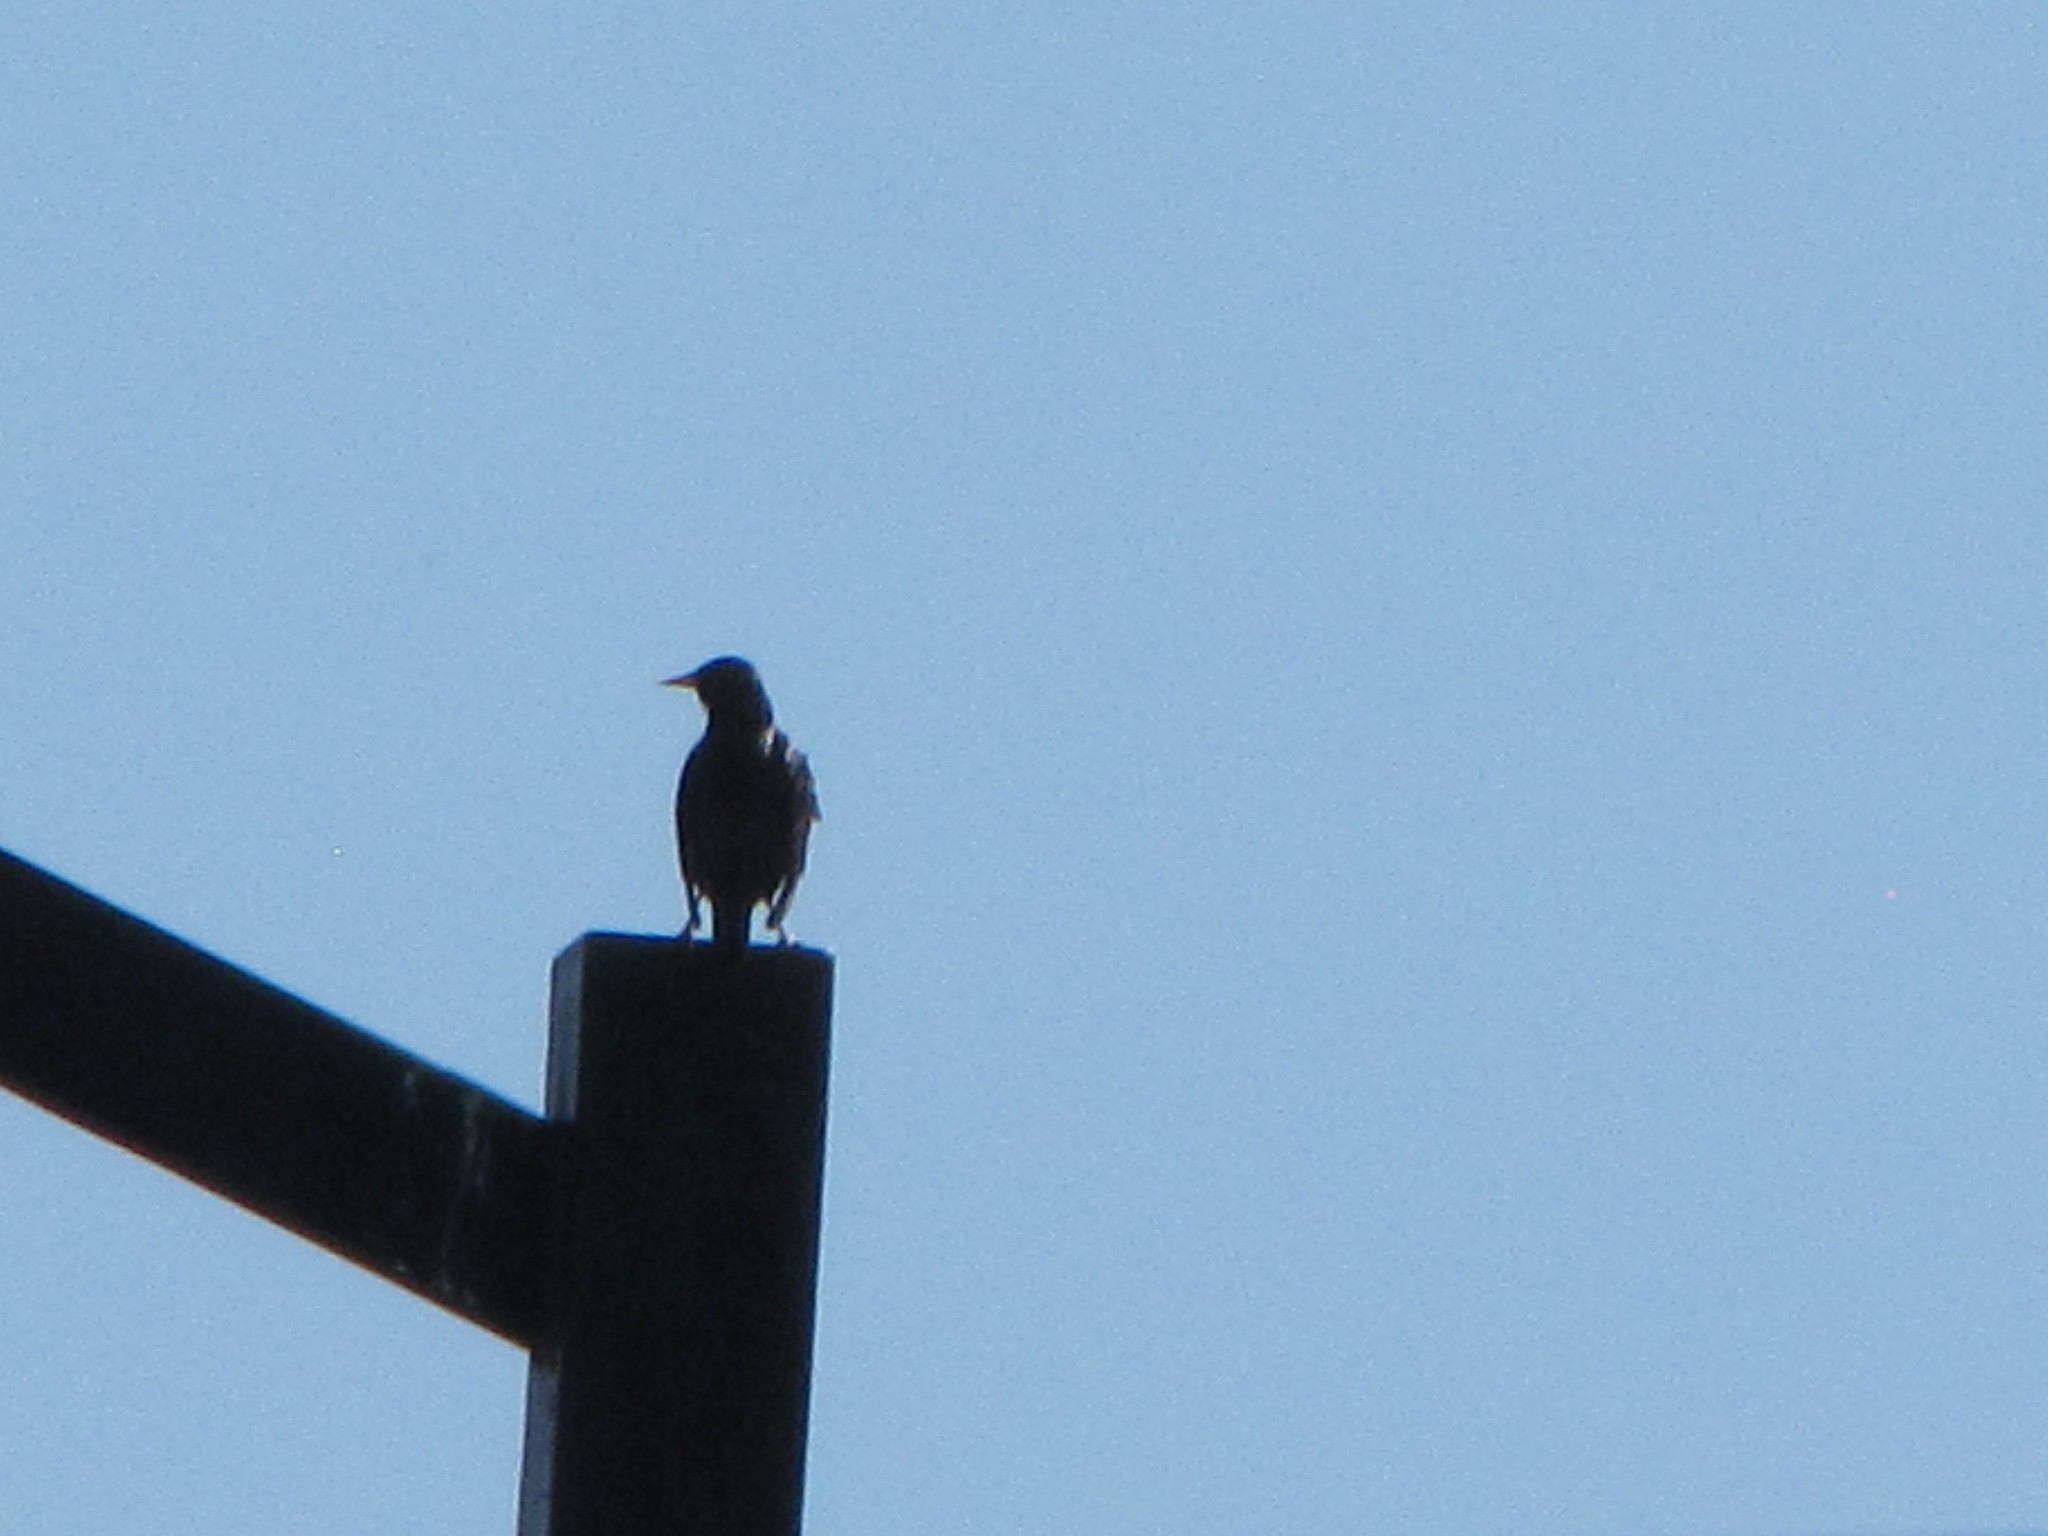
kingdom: Animalia
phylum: Chordata
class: Aves
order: Passeriformes
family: Sturnidae
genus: Sturnus
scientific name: Sturnus vulgaris
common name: Common starling
